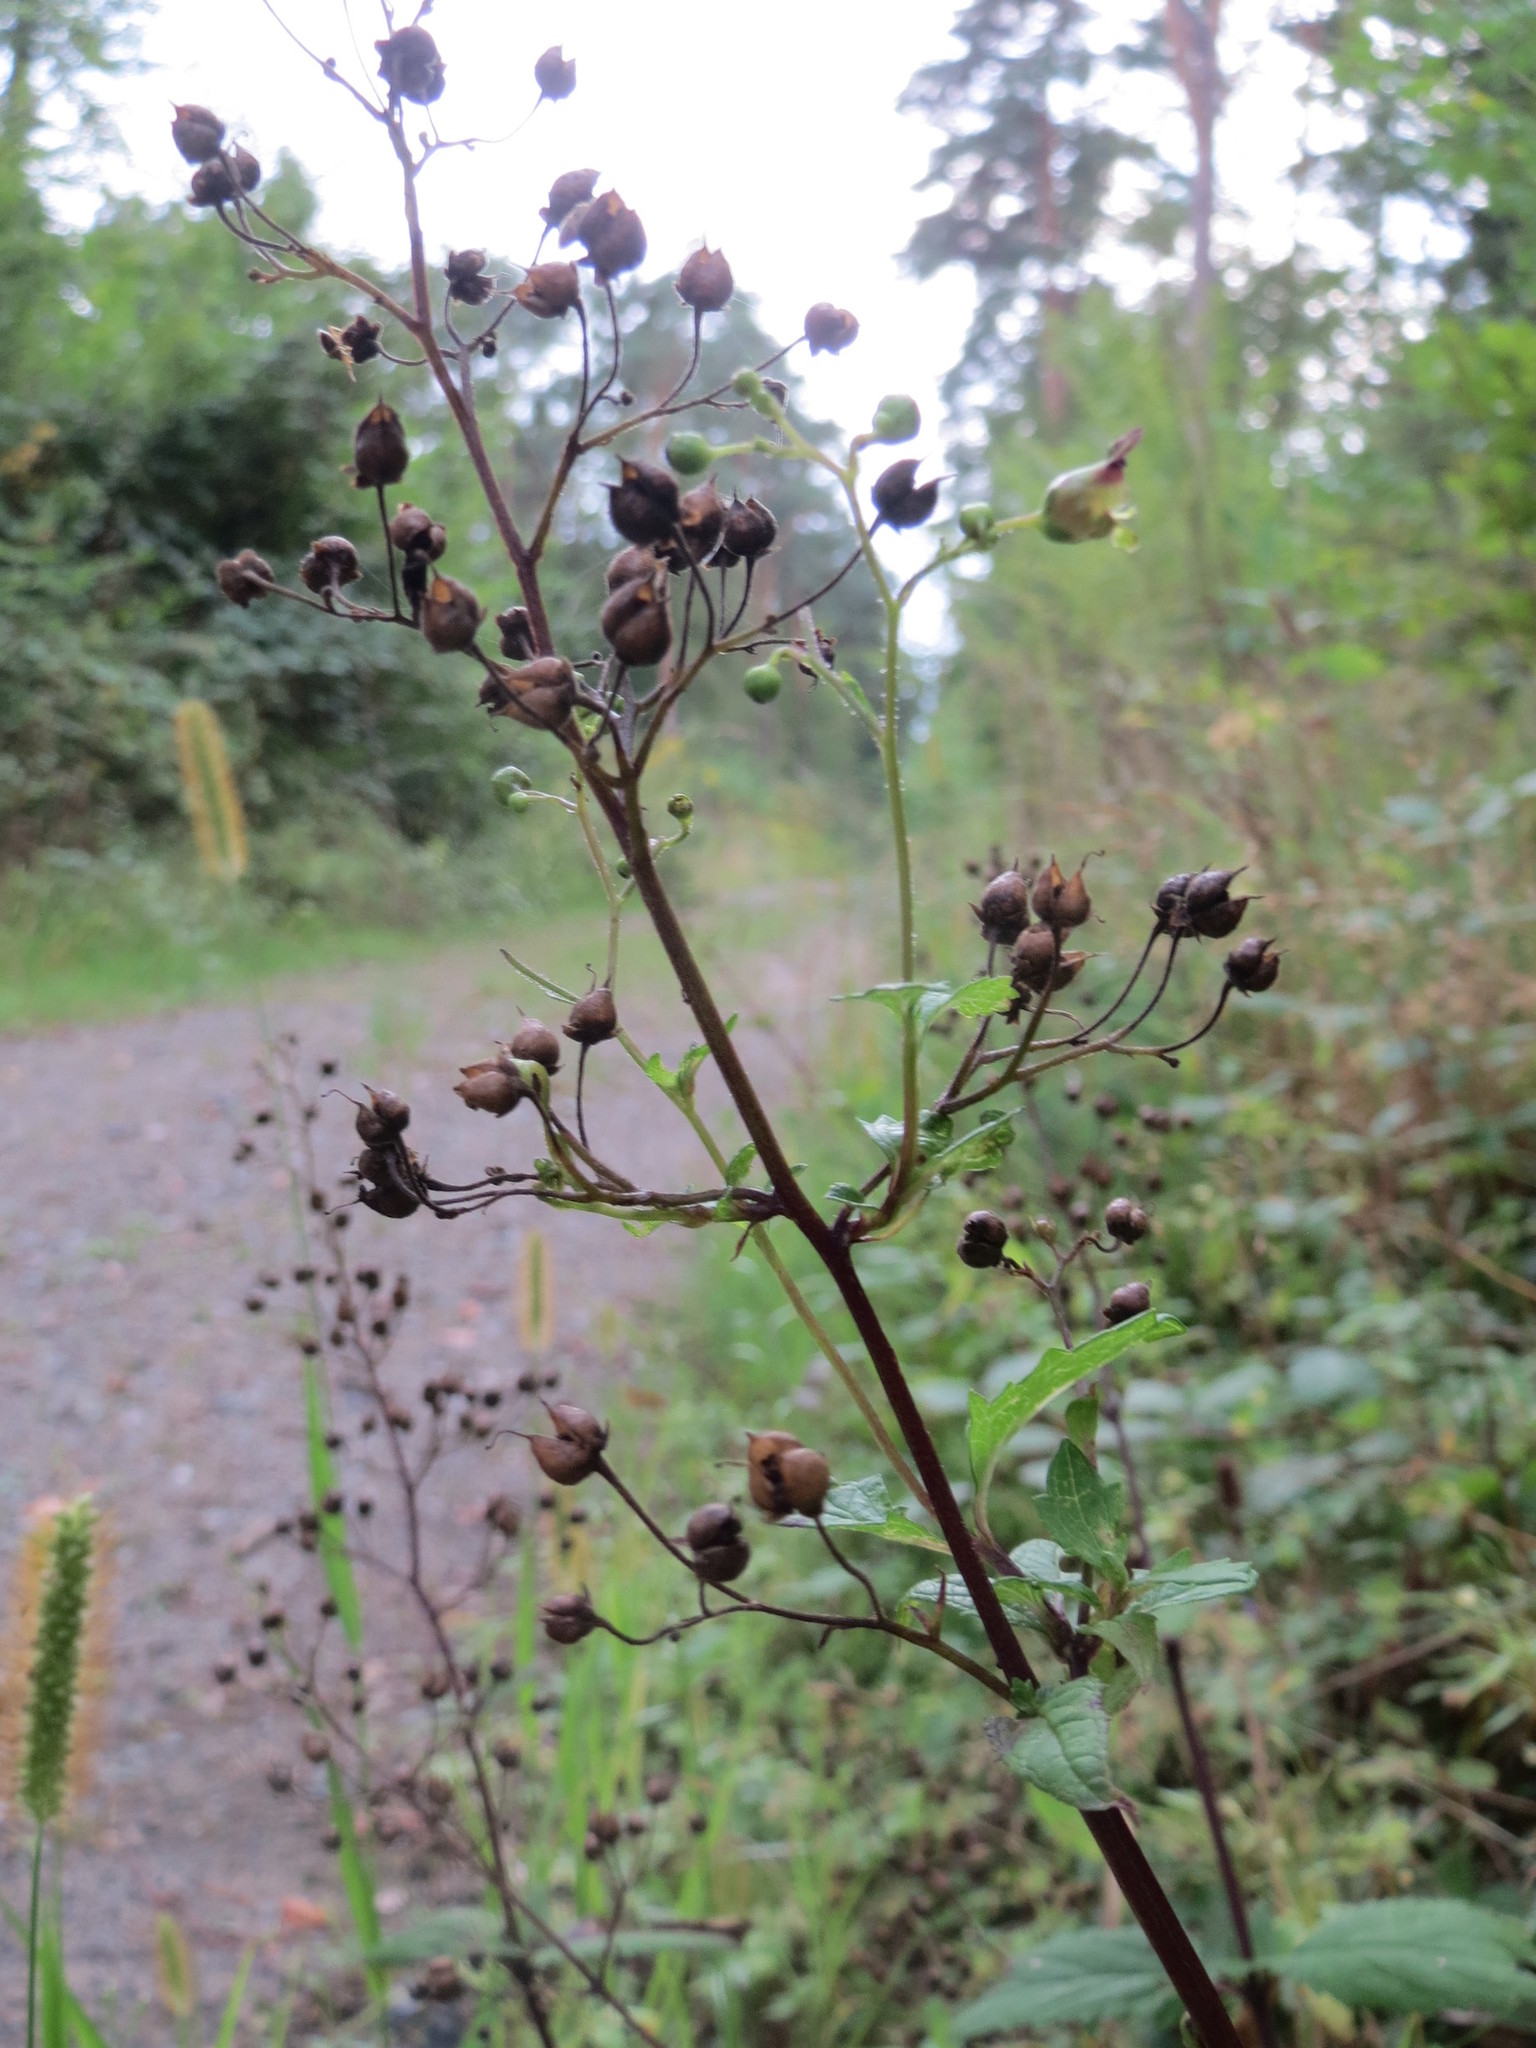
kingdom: Plantae
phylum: Tracheophyta
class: Magnoliopsida
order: Lamiales
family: Scrophulariaceae
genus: Scrophularia
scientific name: Scrophularia nodosa
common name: Common figwort
